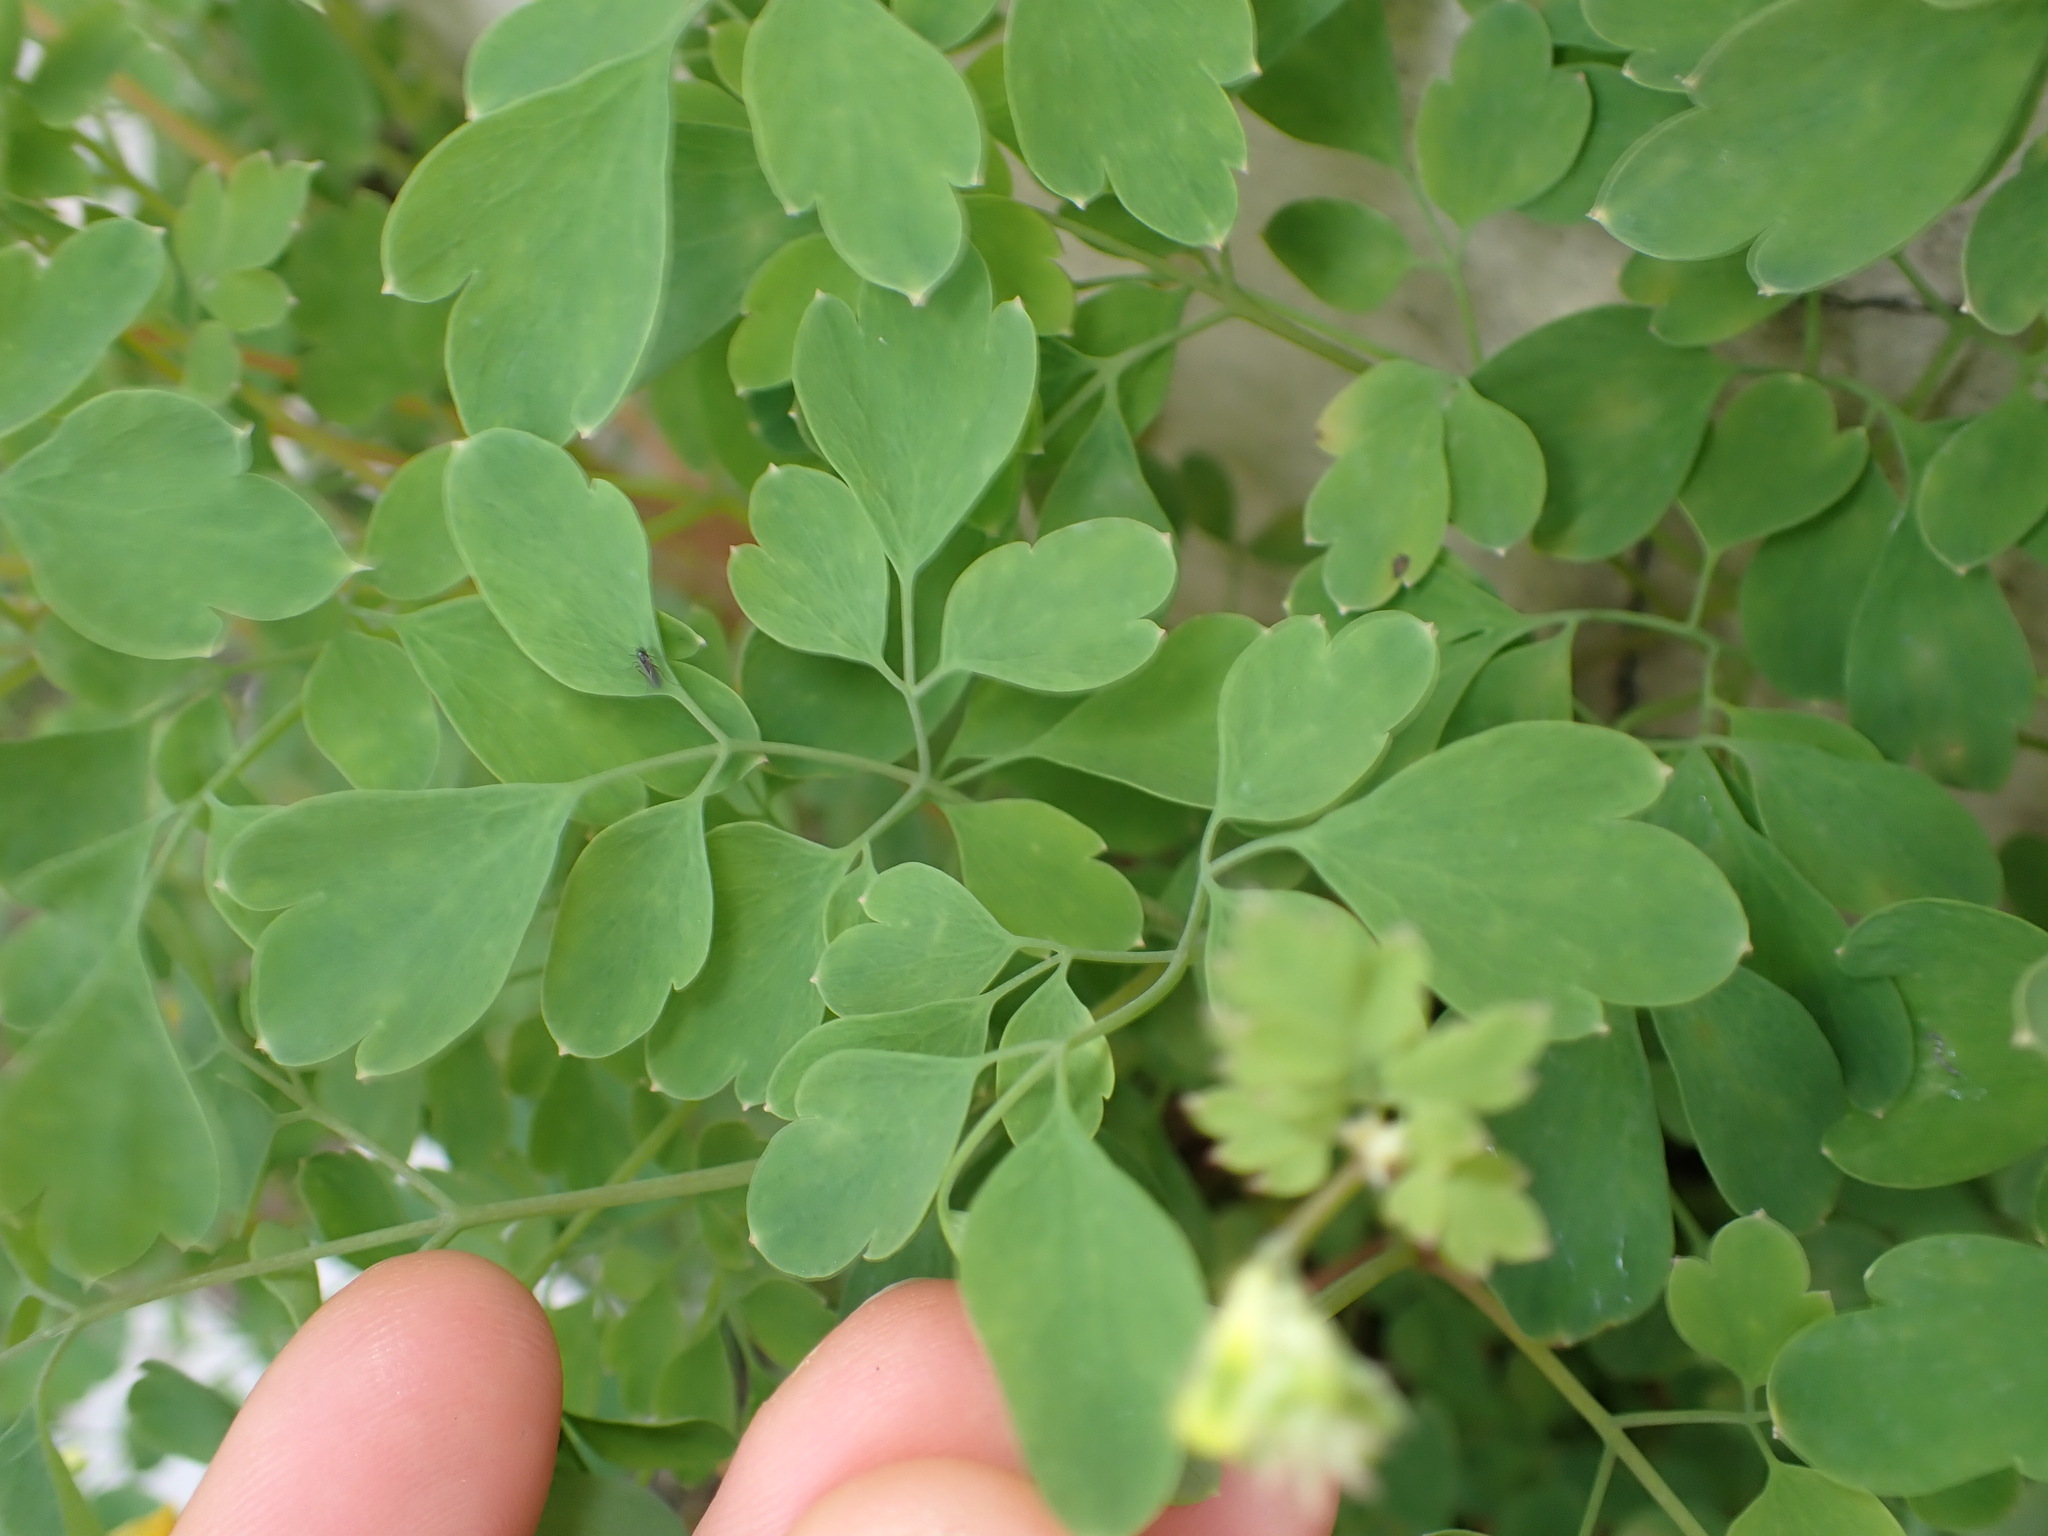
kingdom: Plantae
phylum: Tracheophyta
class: Magnoliopsida
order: Ranunculales
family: Papaveraceae
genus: Pseudofumaria
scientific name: Pseudofumaria lutea
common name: Yellow corydalis
